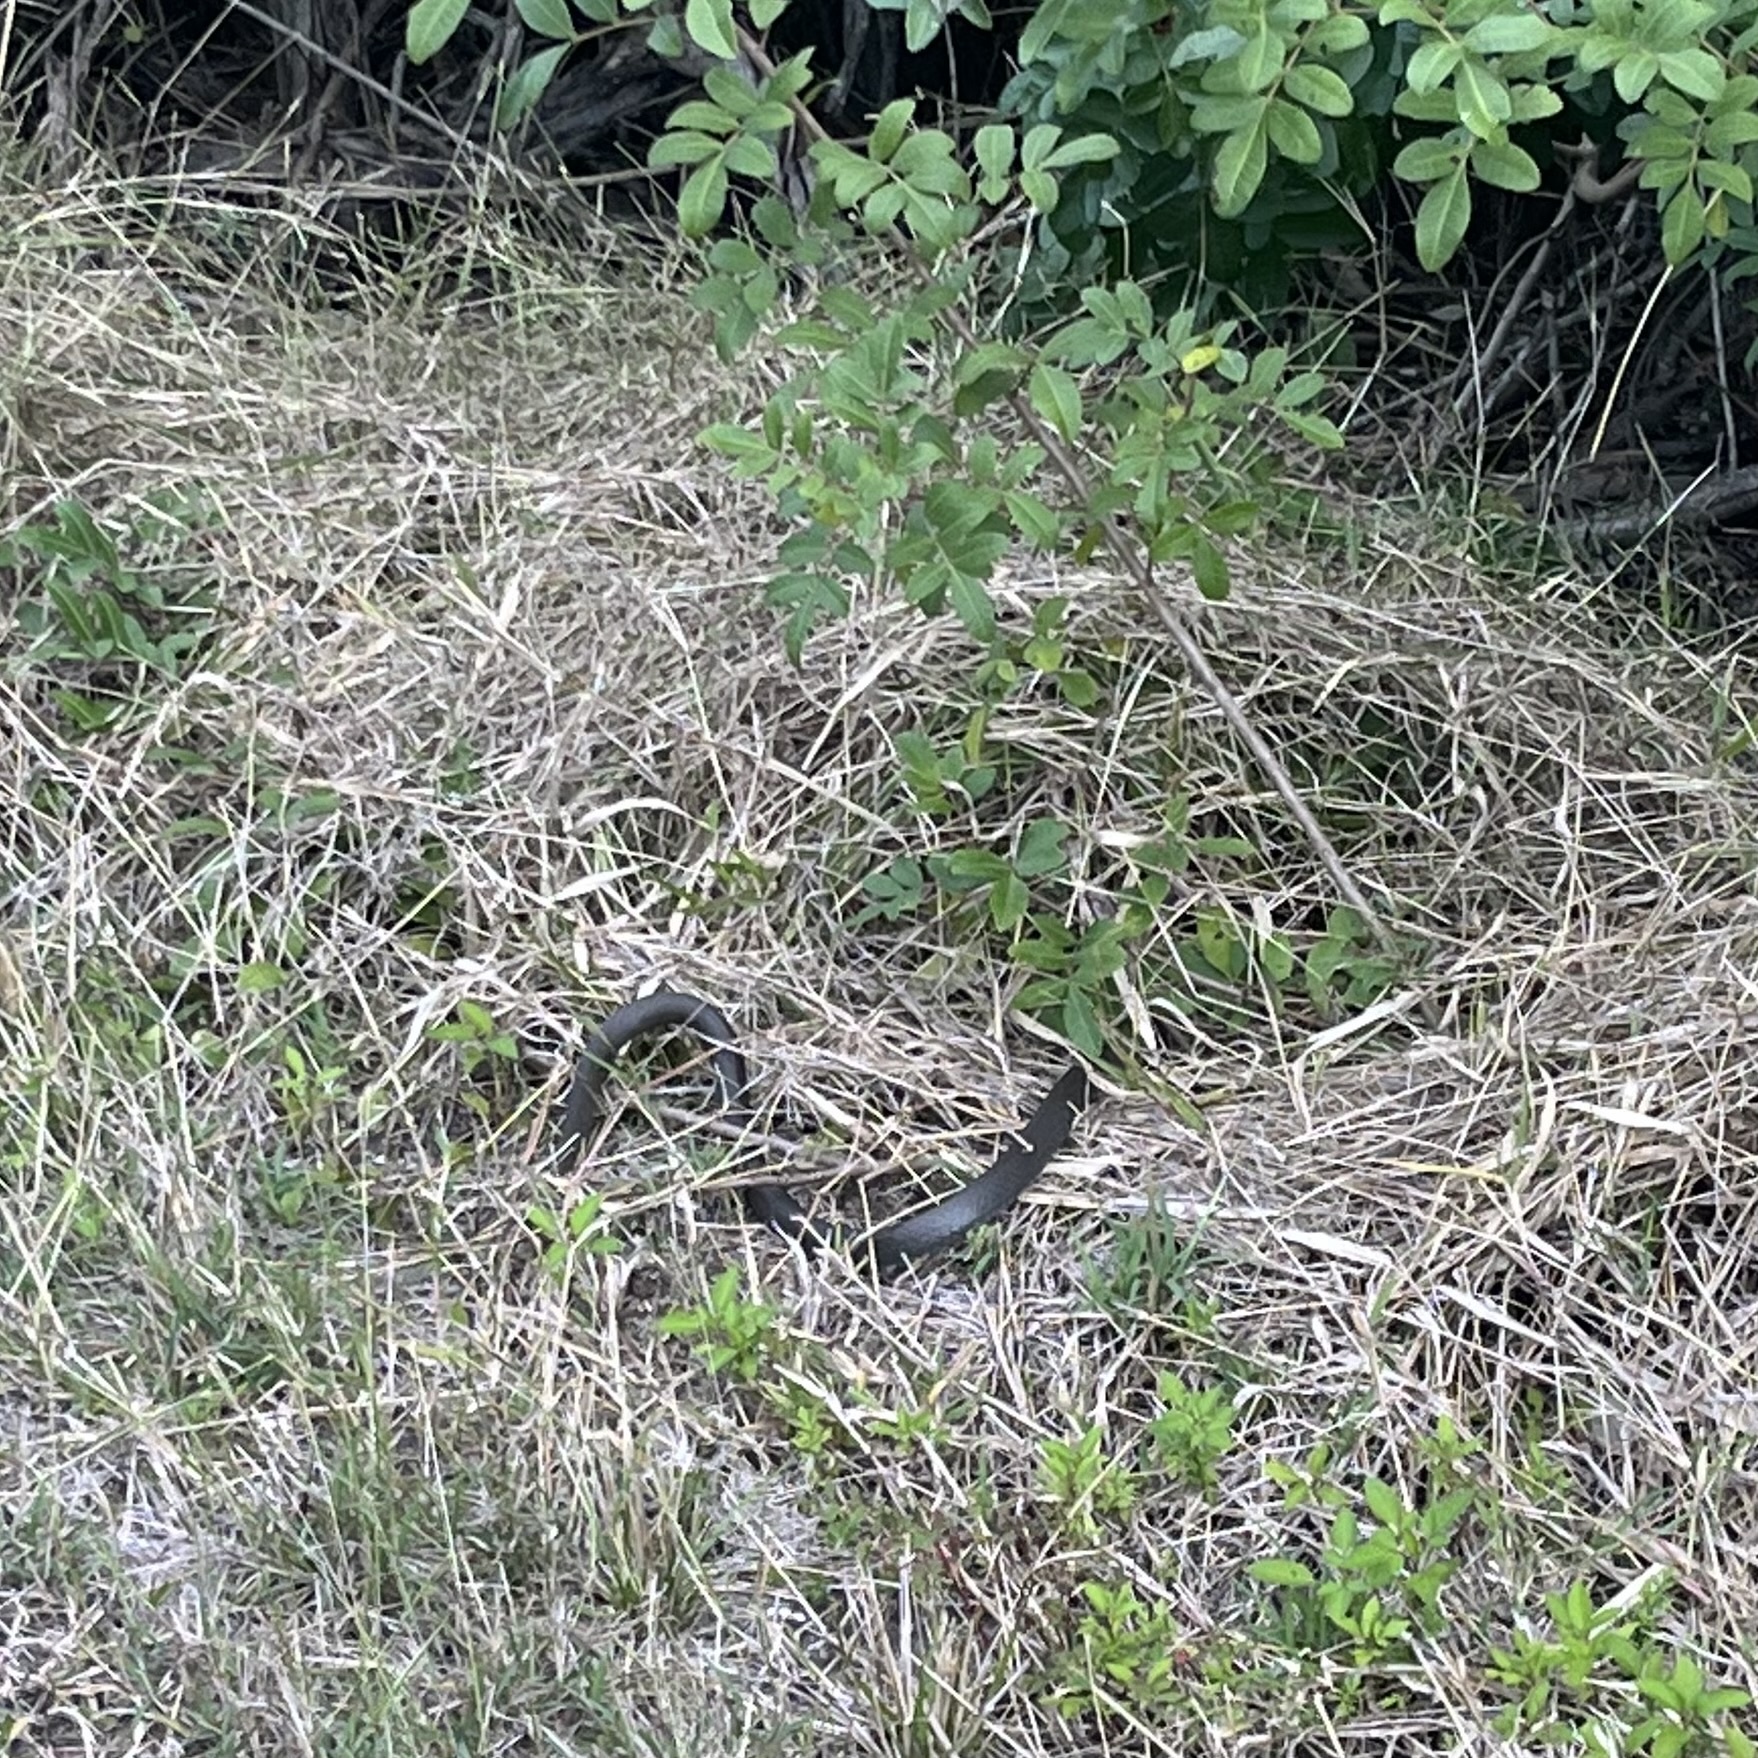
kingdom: Animalia
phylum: Chordata
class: Squamata
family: Colubridae
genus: Coluber
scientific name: Coluber constrictor
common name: Eastern racer
